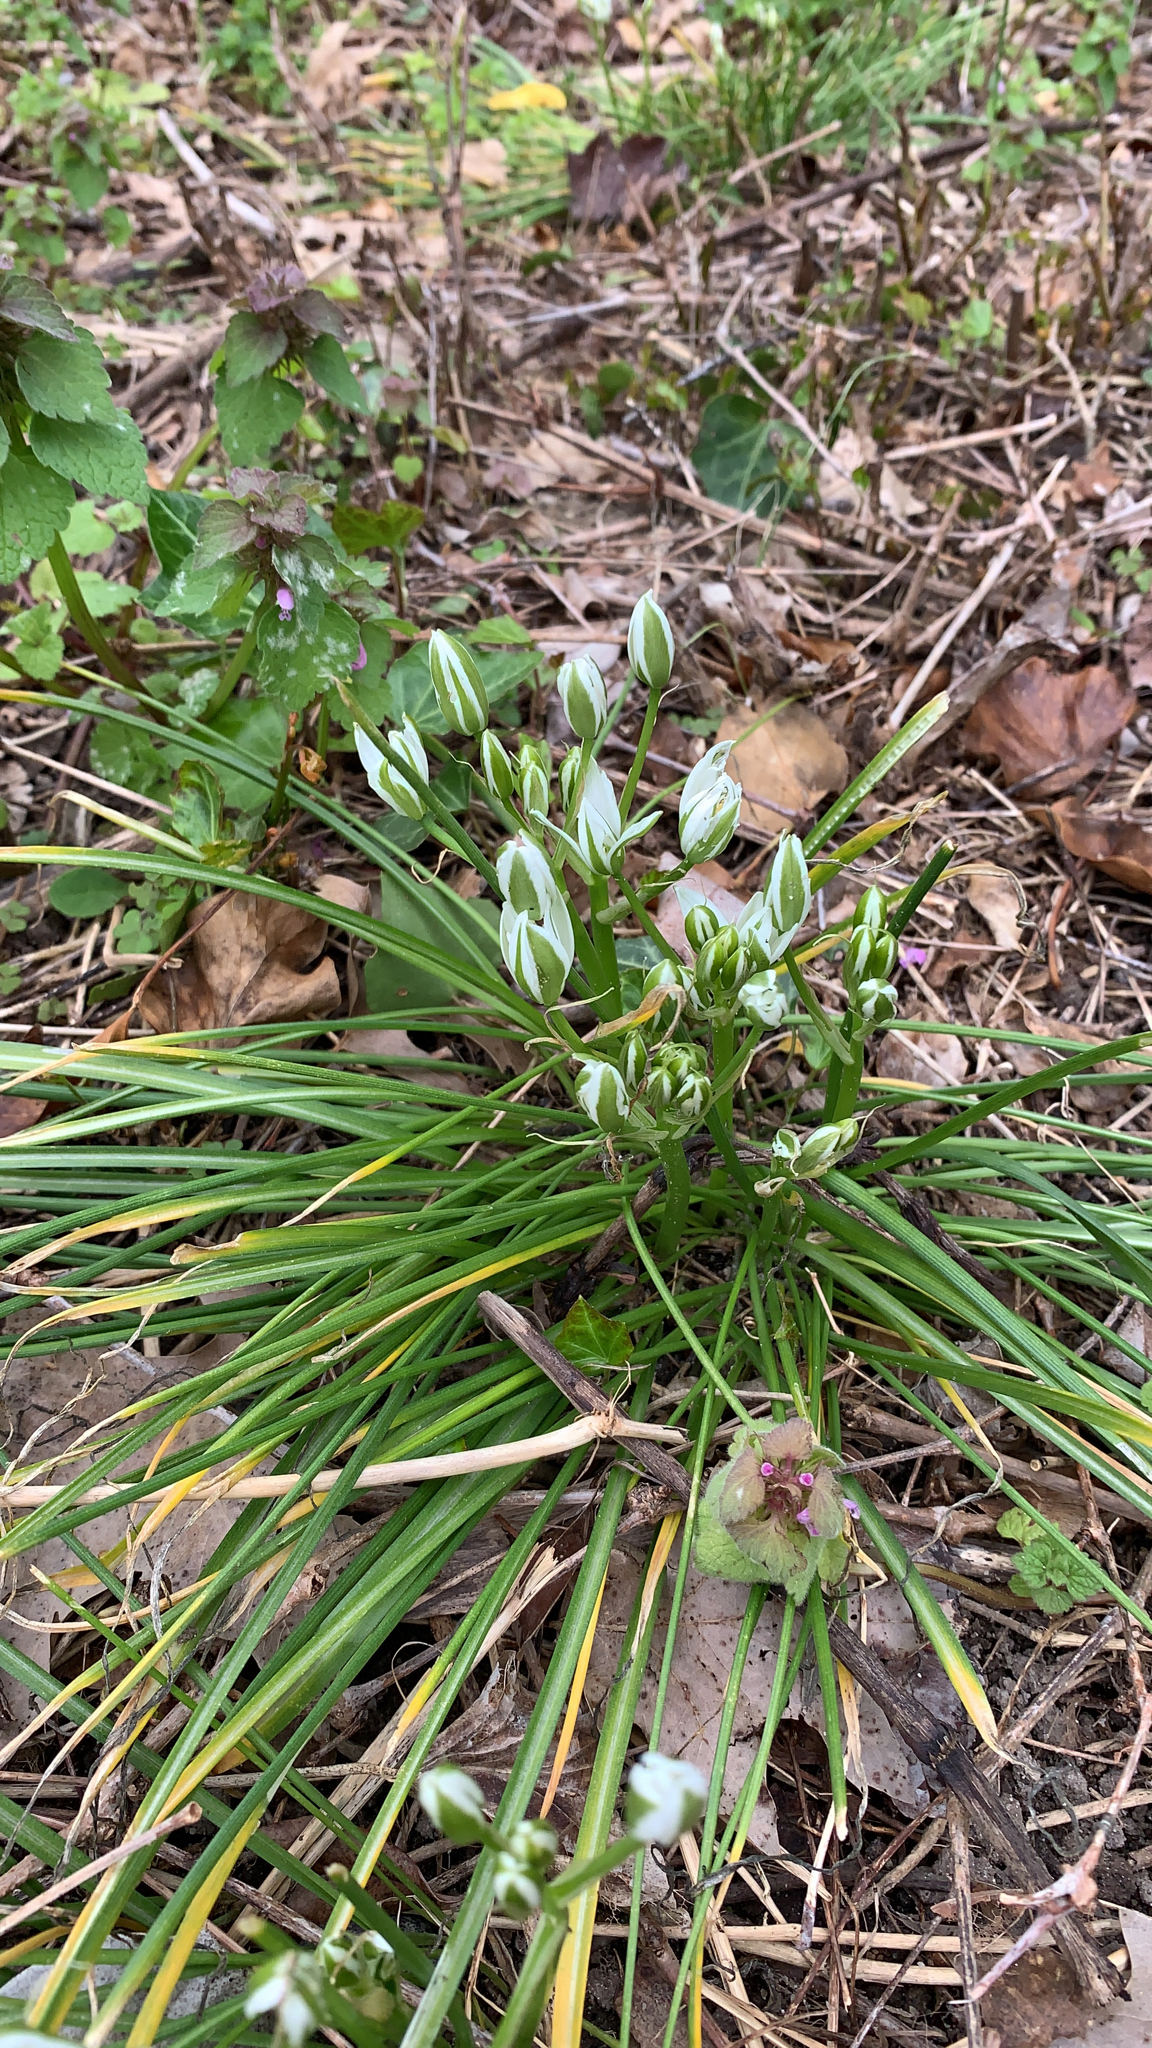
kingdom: Plantae
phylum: Tracheophyta
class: Liliopsida
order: Asparagales
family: Asparagaceae
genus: Ornithogalum
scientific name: Ornithogalum umbellatum
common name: Garden star-of-bethlehem
